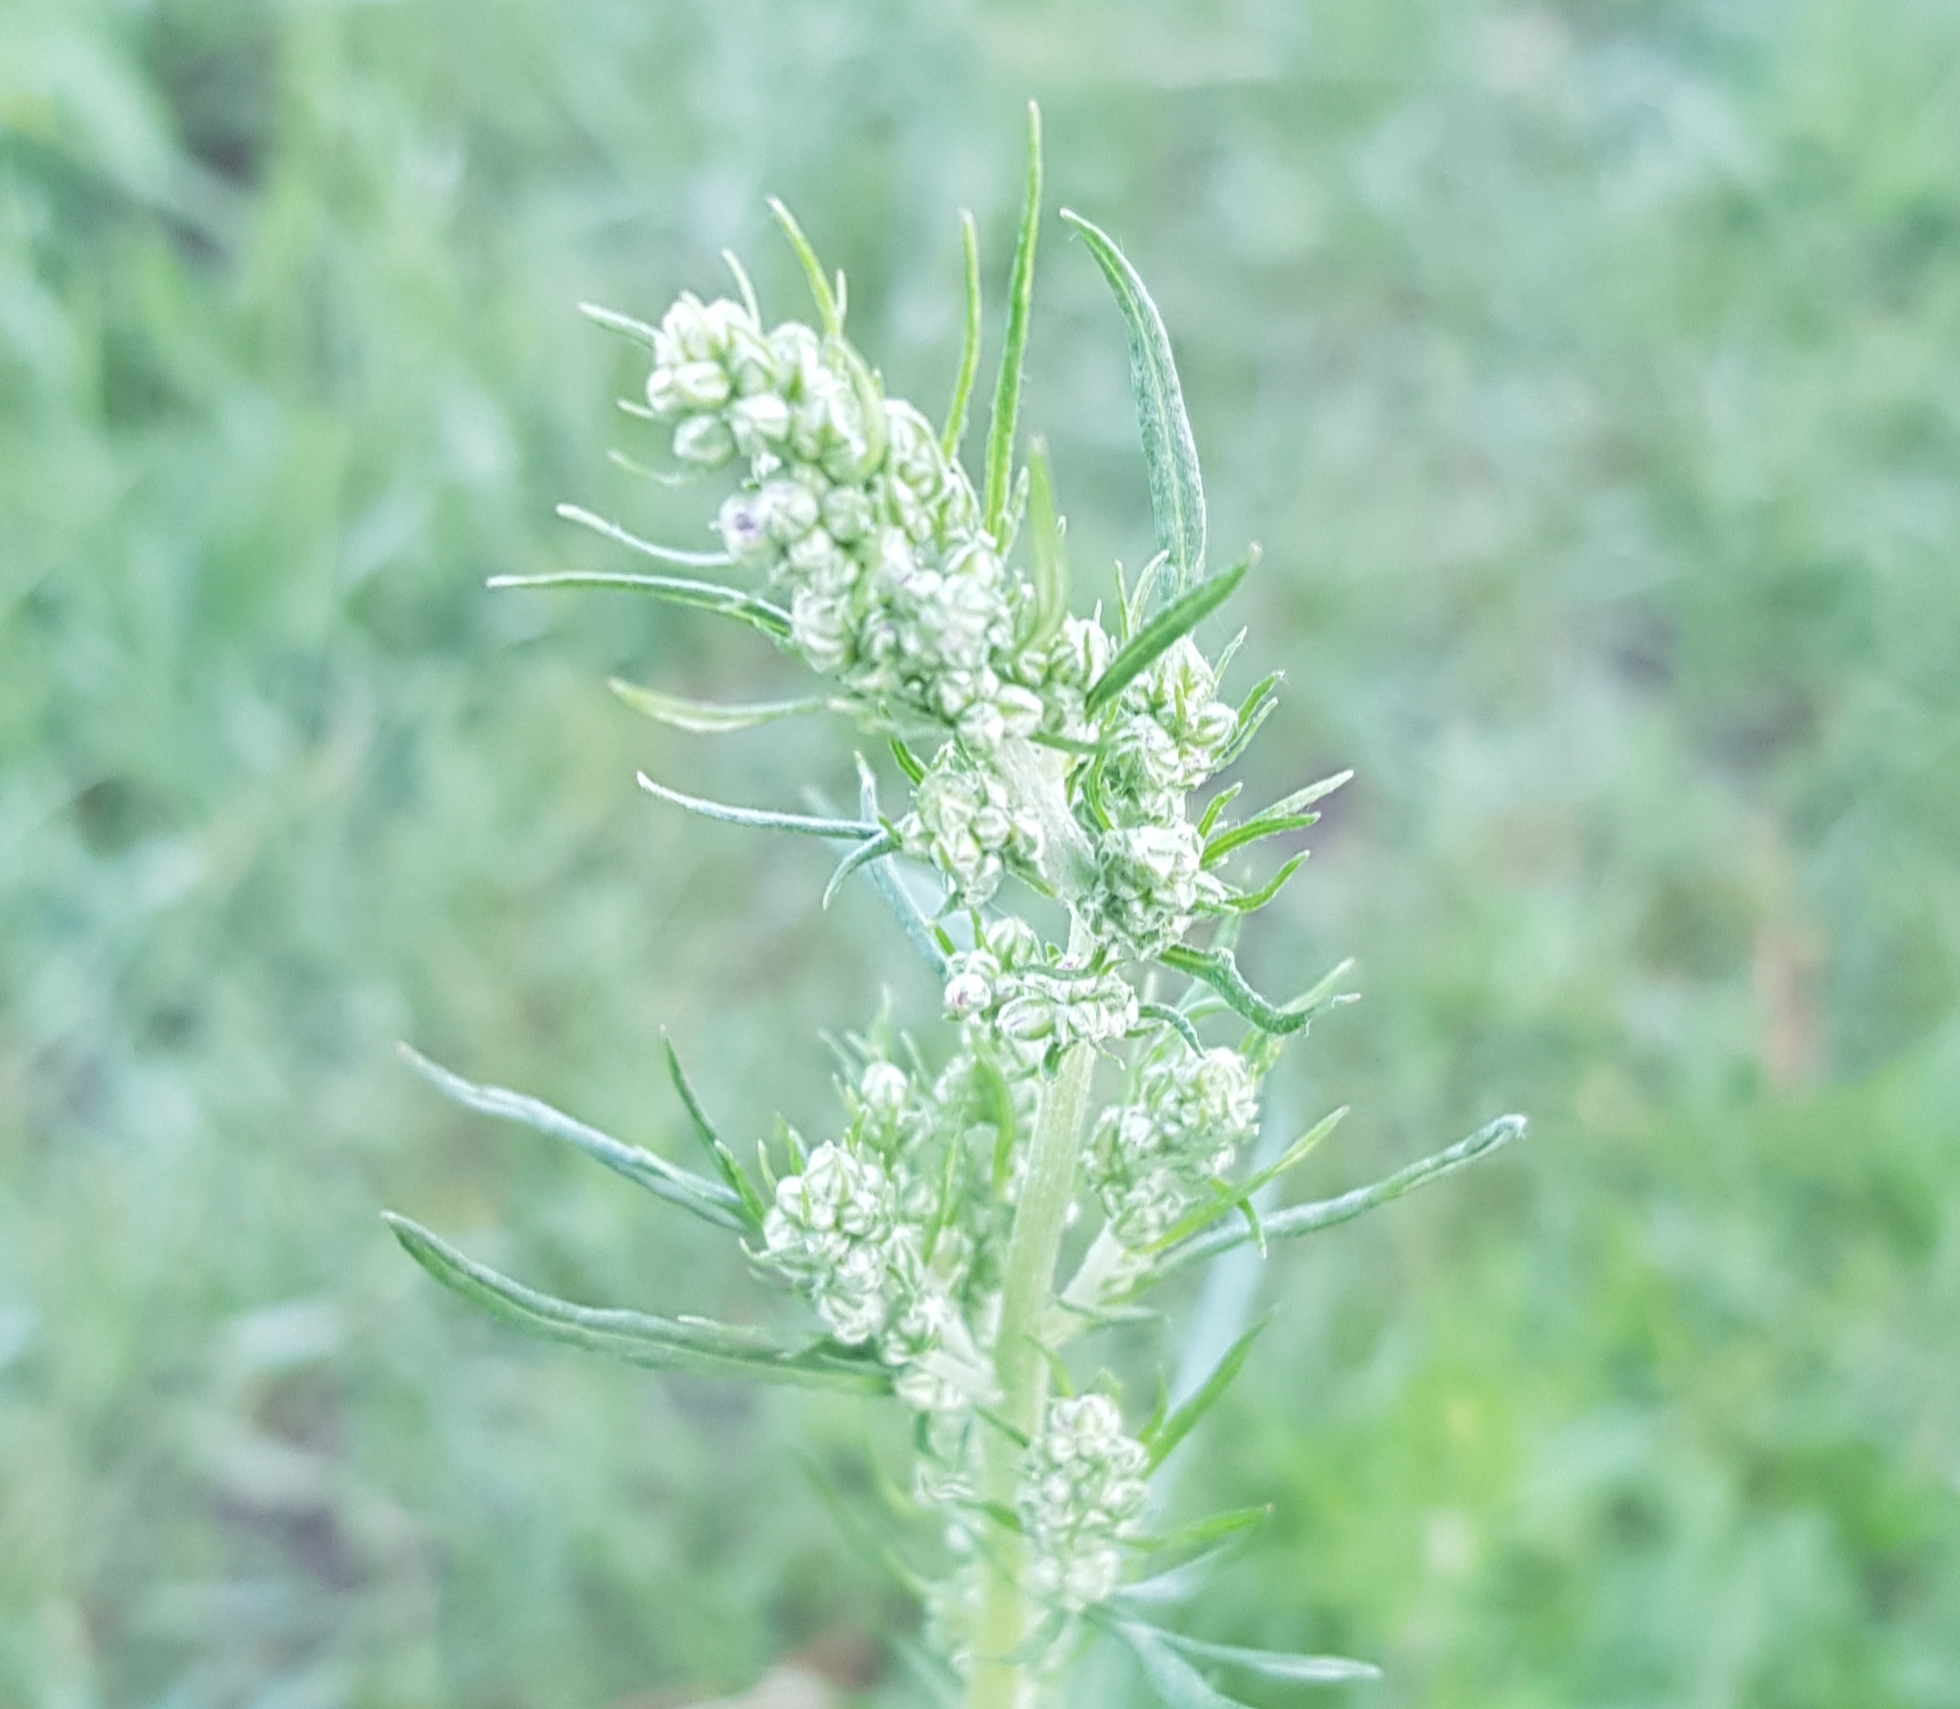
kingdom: Plantae
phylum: Tracheophyta
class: Magnoliopsida
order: Asterales
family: Asteraceae
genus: Artemisia
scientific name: Artemisia vulgaris
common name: Mugwort
